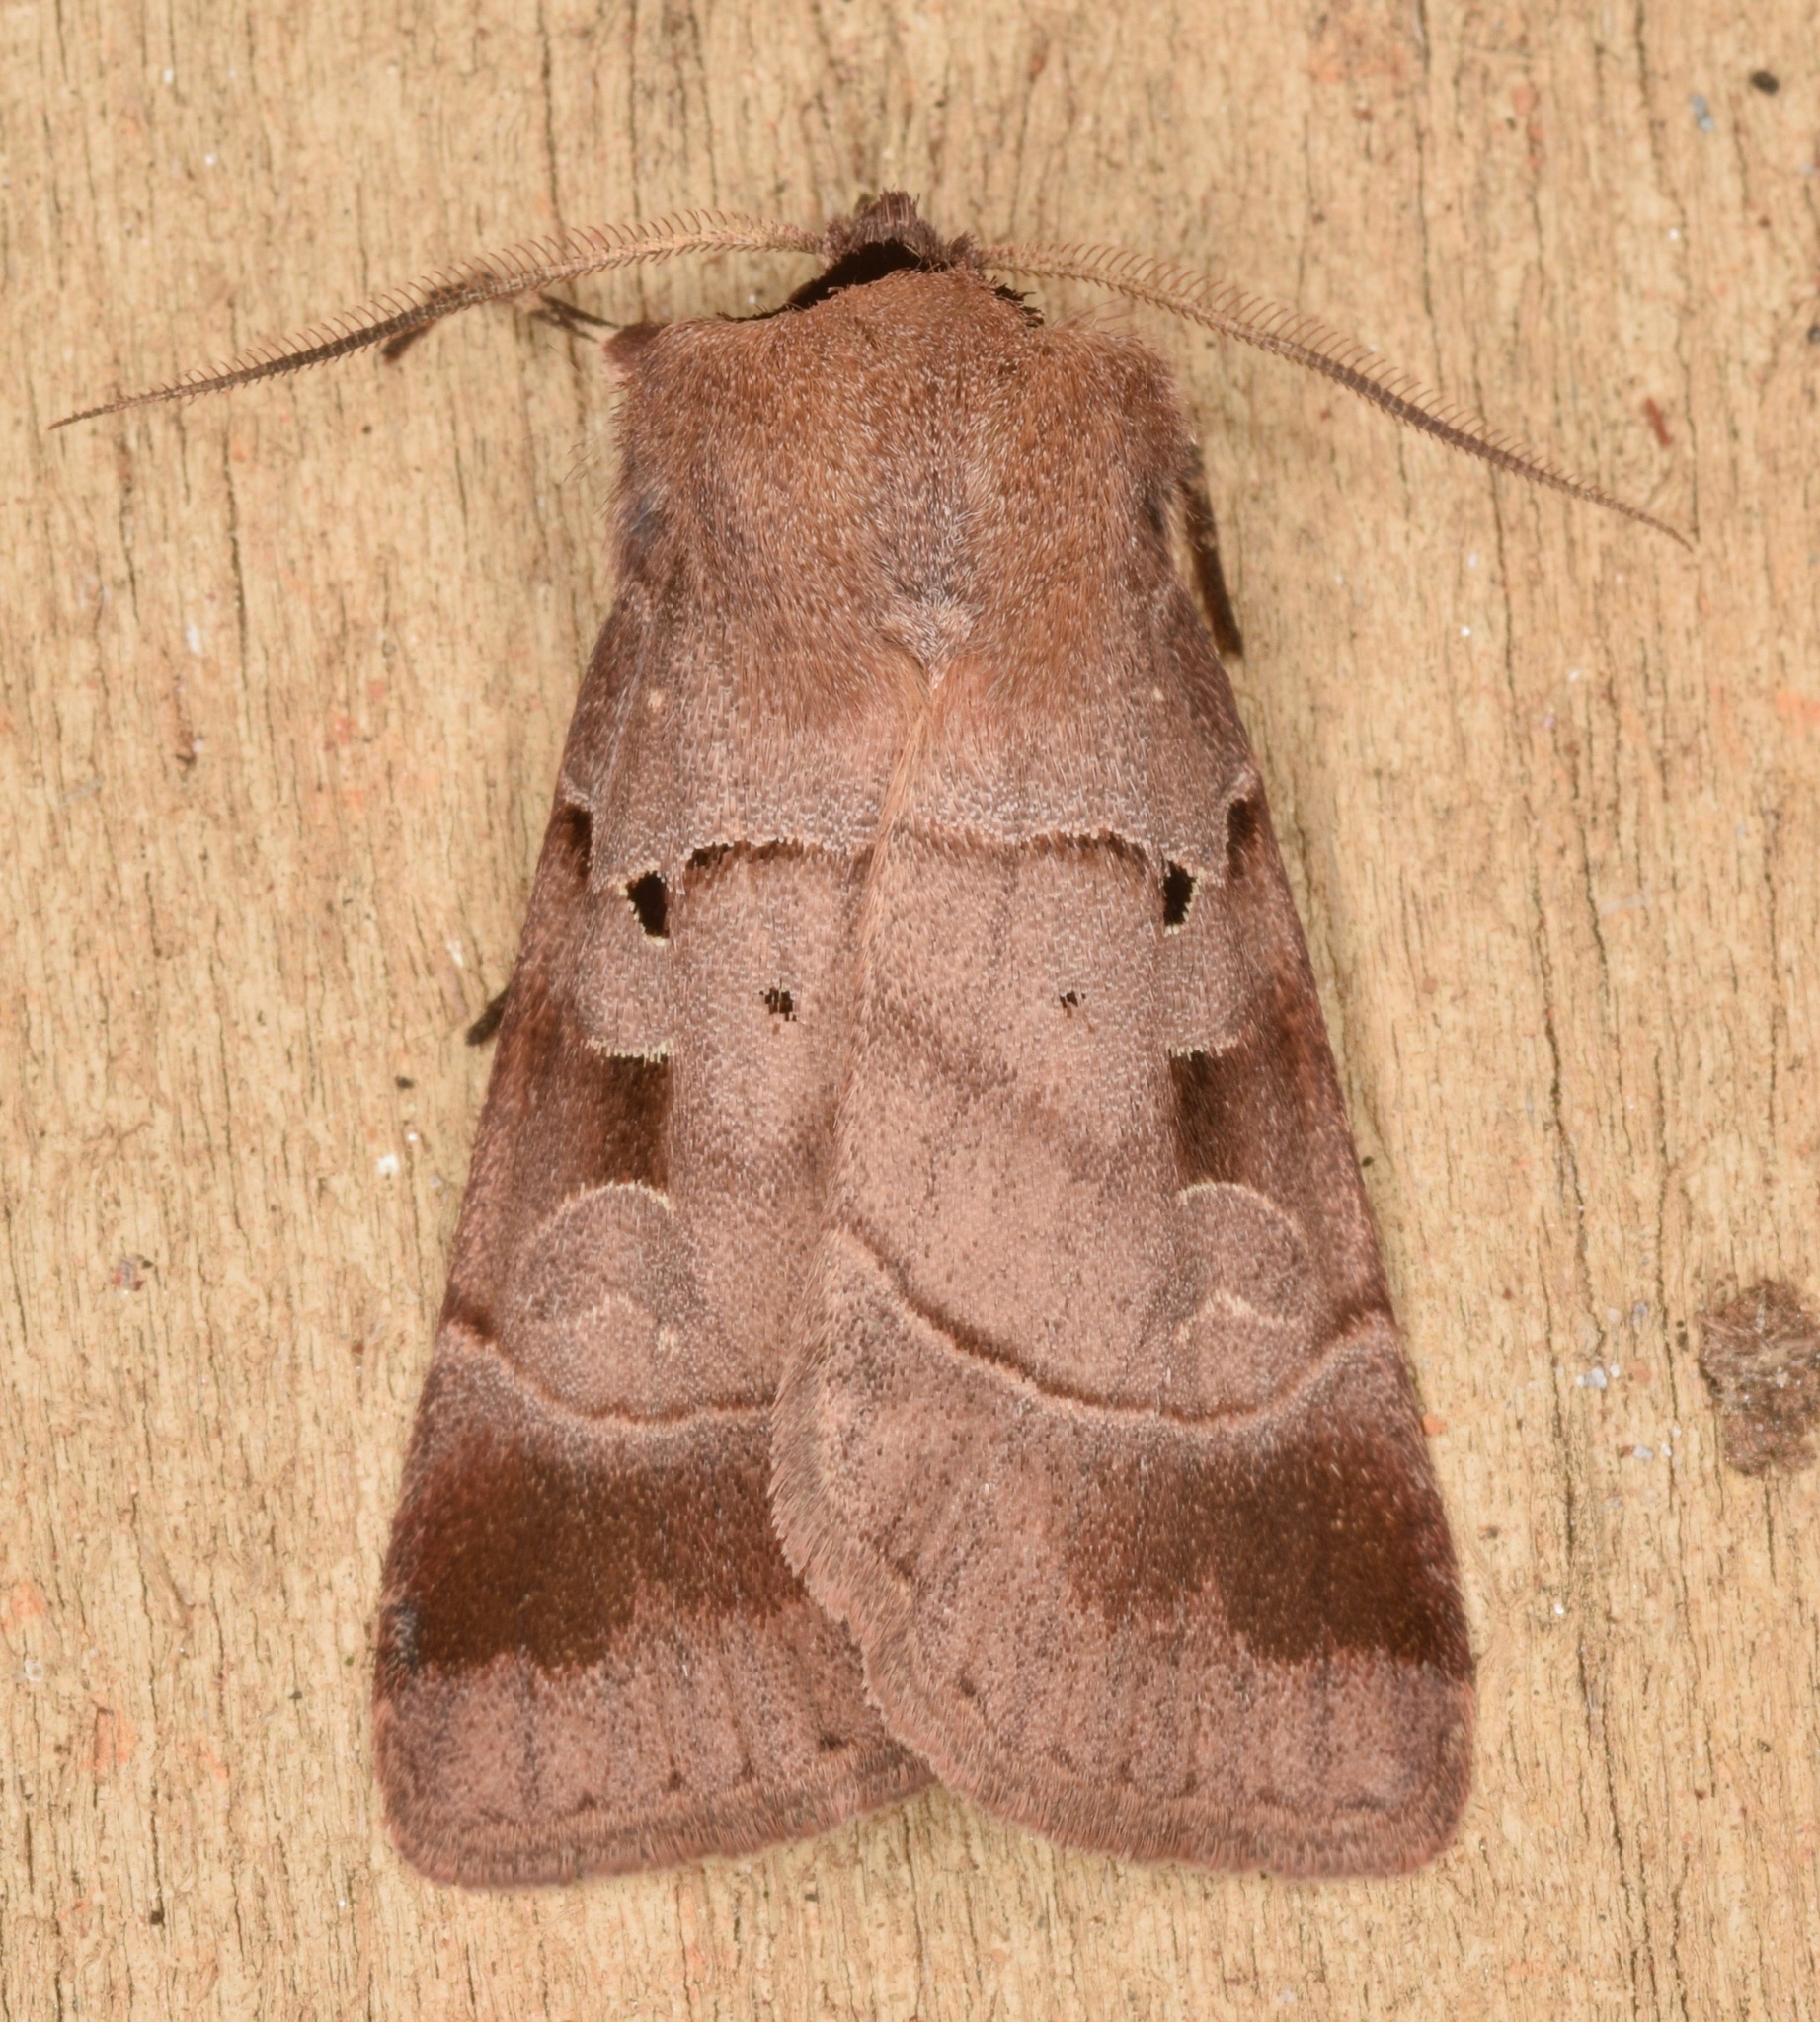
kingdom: Animalia
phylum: Arthropoda
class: Insecta
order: Lepidoptera
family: Noctuidae
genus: Agnorisma
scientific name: Agnorisma badinodis
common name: Pale-banded dart
